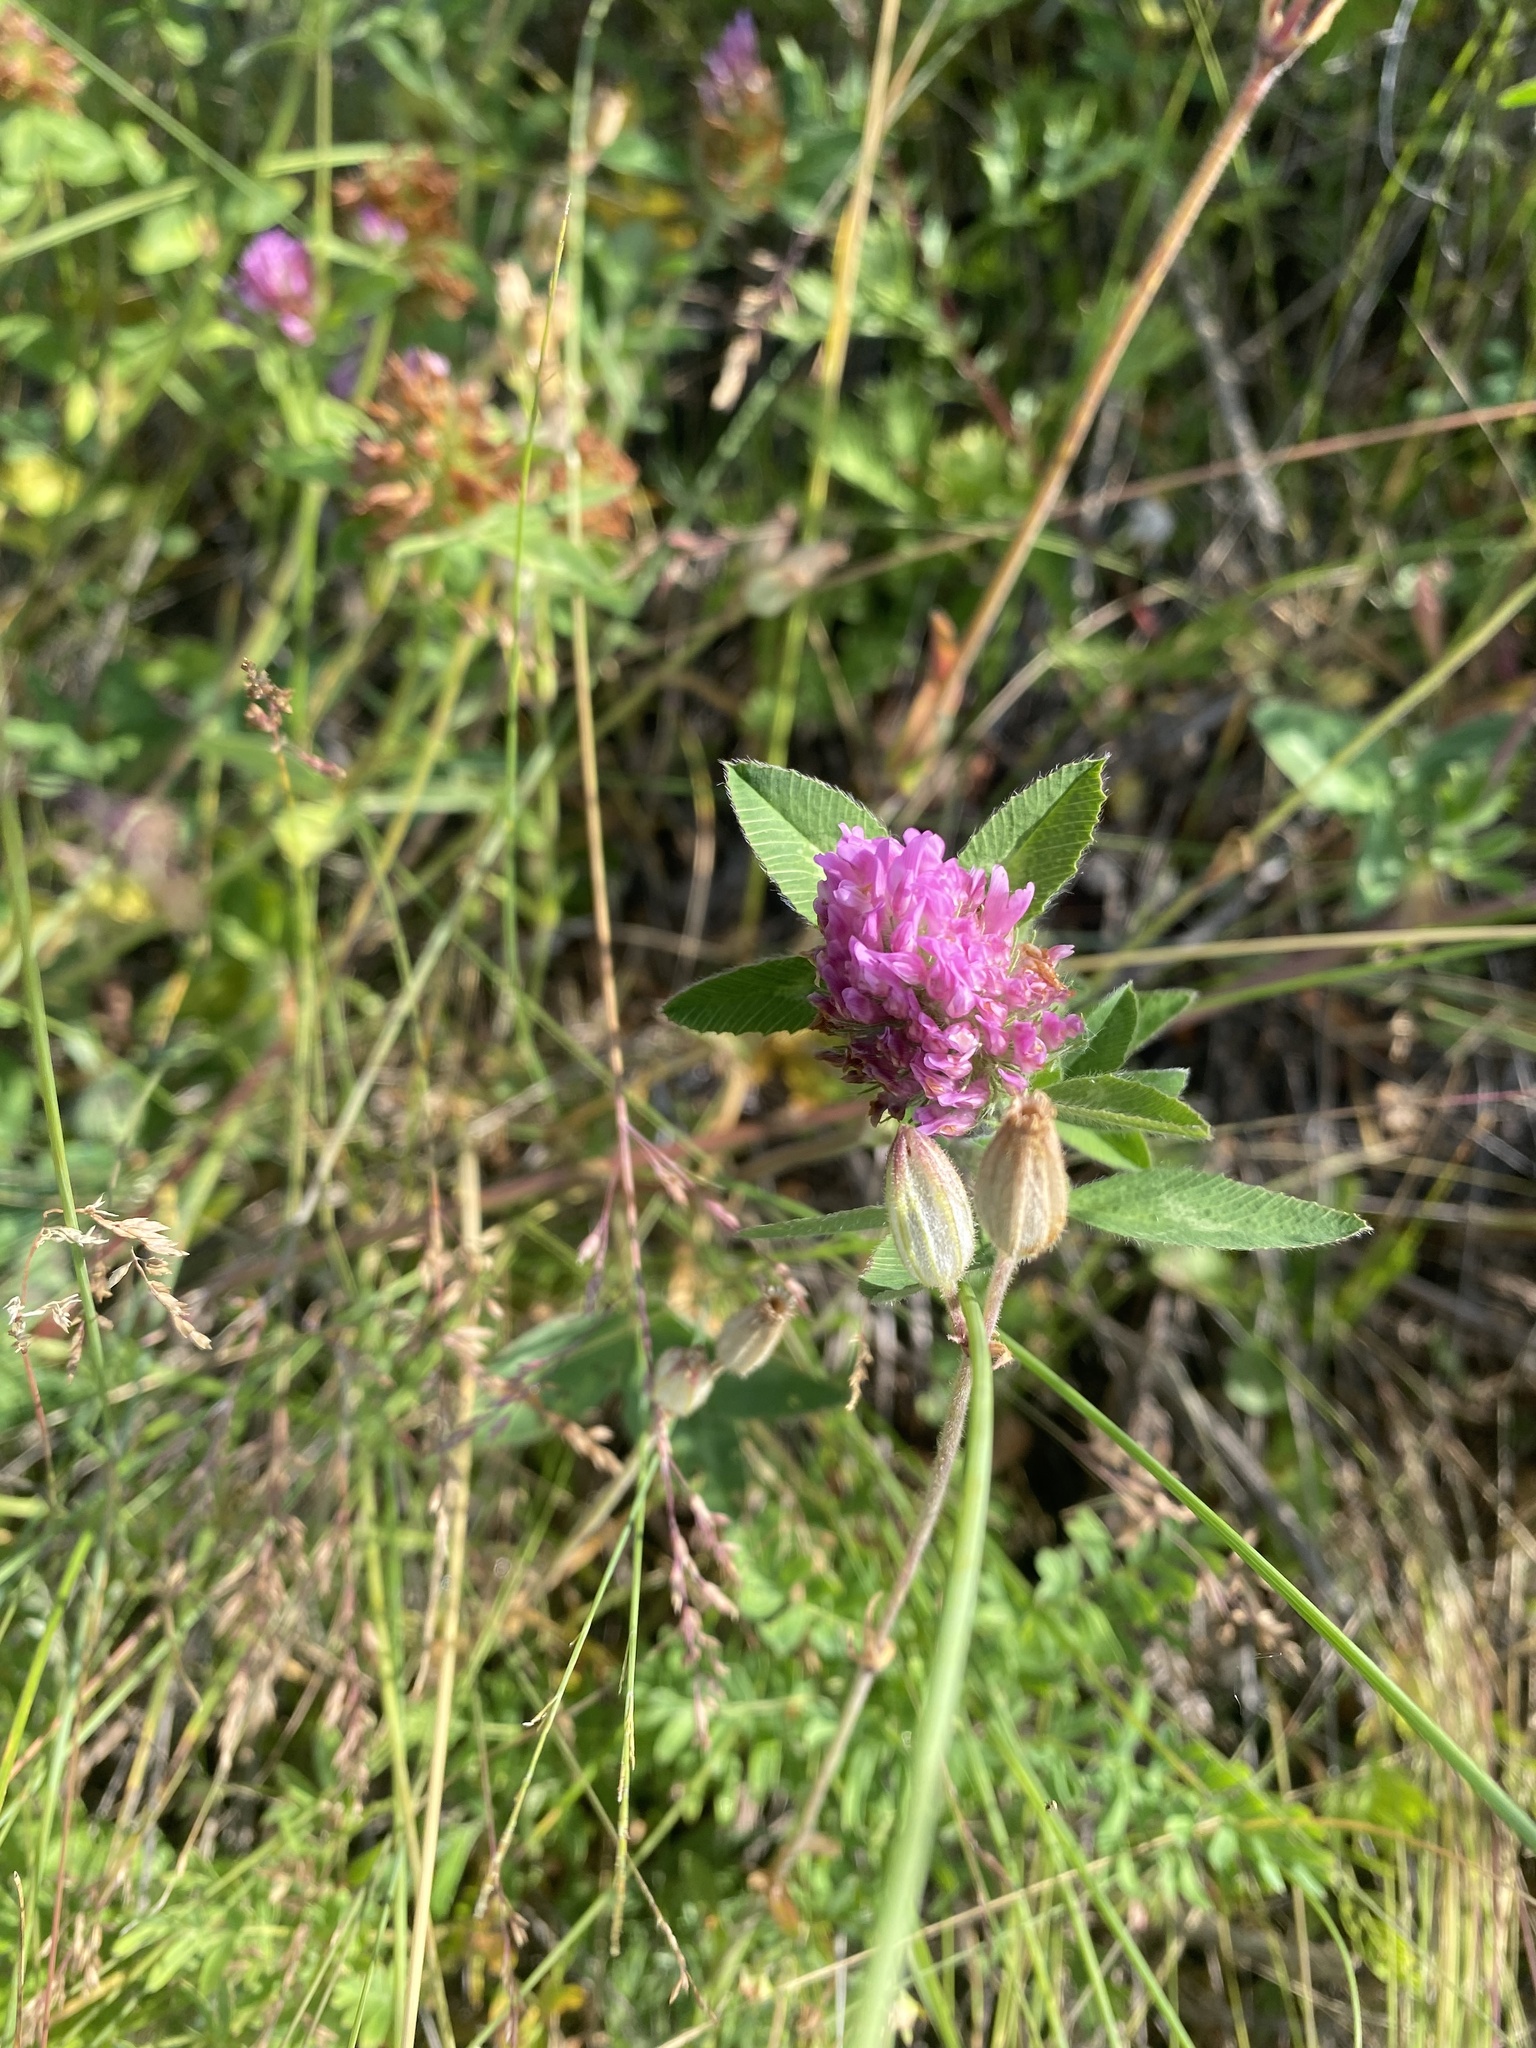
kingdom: Plantae
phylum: Tracheophyta
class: Magnoliopsida
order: Fabales
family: Fabaceae
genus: Trifolium
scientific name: Trifolium pratense
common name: Red clover
